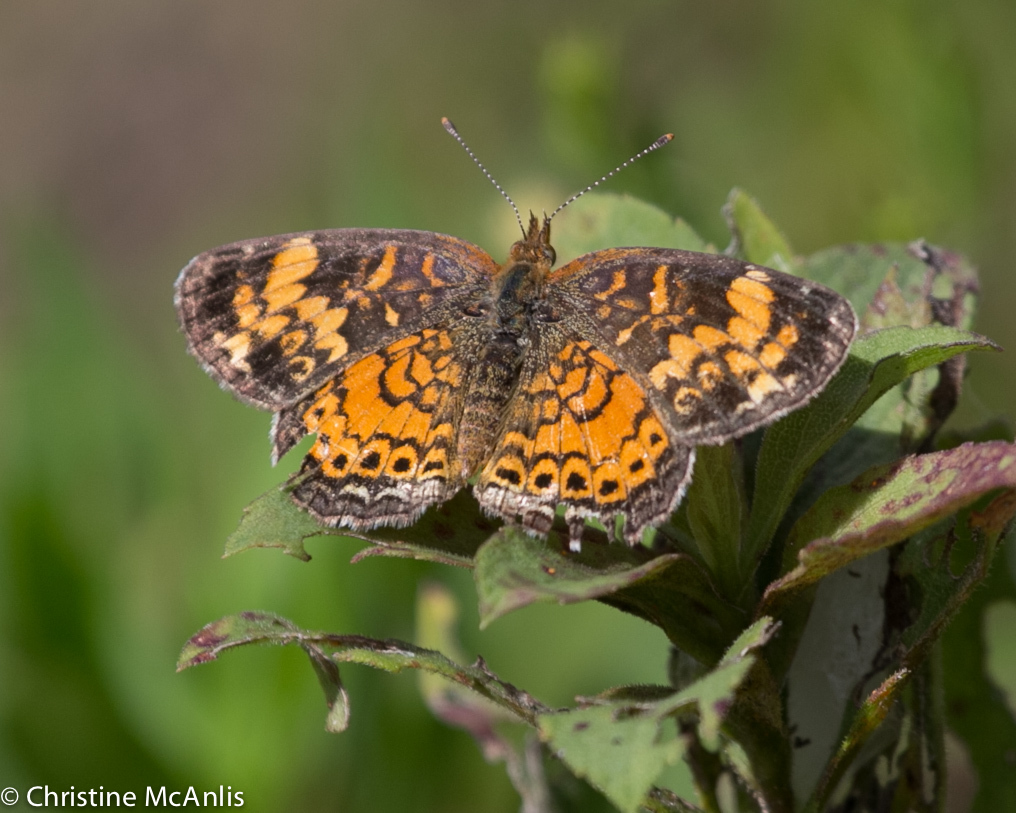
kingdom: Animalia
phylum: Arthropoda
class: Insecta
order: Lepidoptera
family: Nymphalidae
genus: Phyciodes
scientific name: Phyciodes tharos
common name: Pearl crescent
